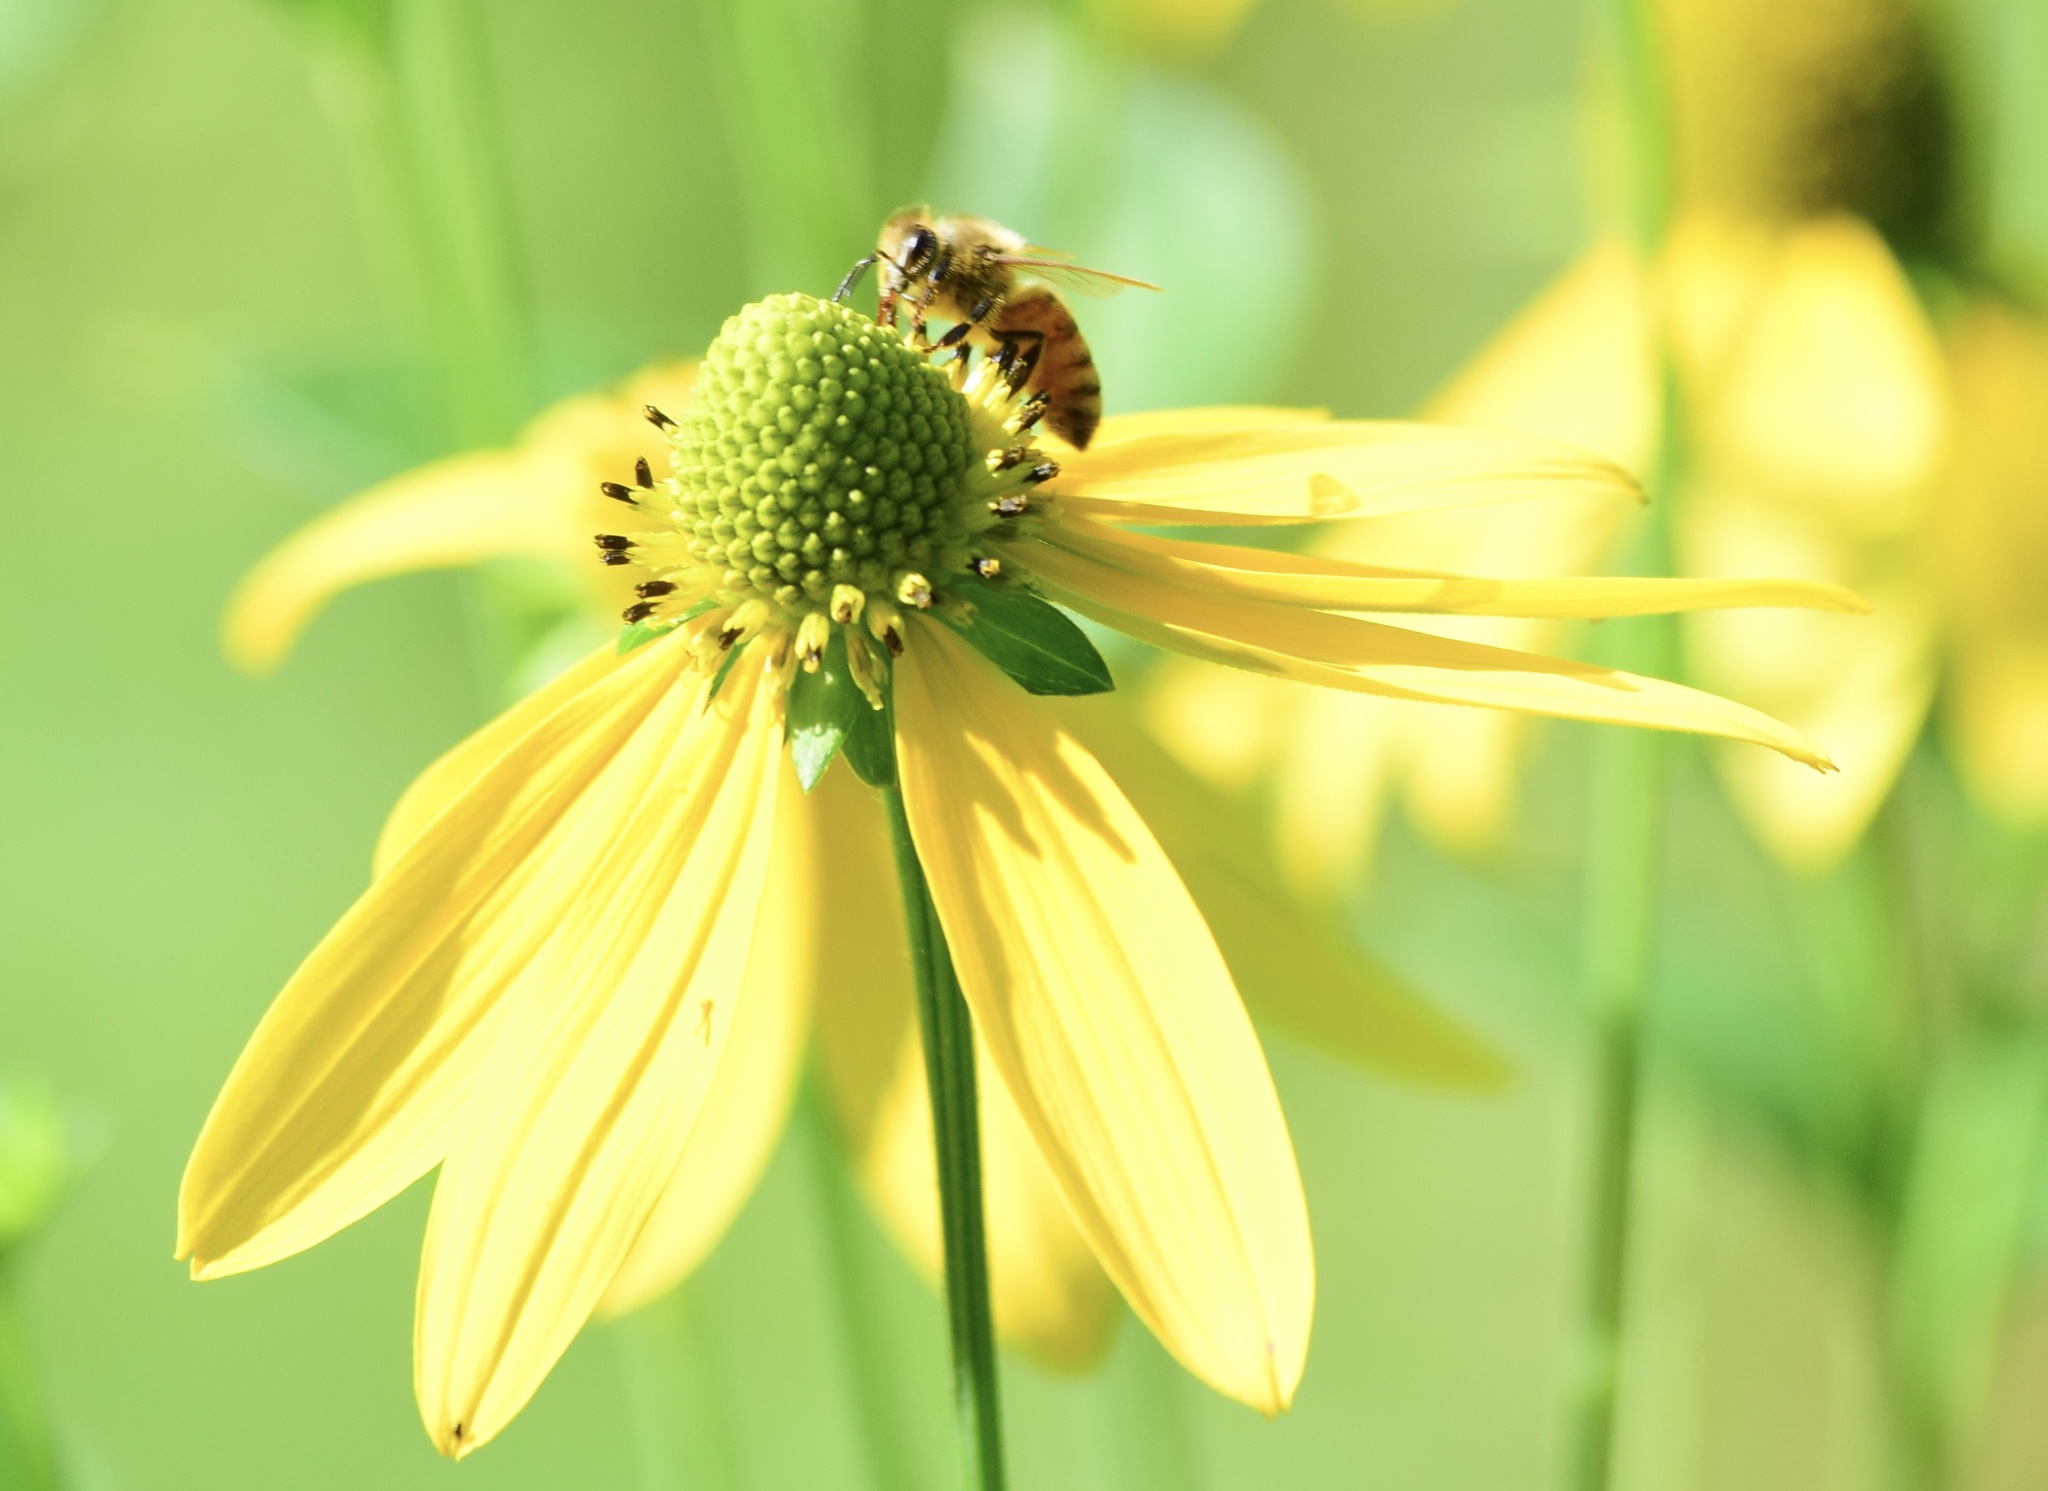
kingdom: Animalia
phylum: Arthropoda
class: Insecta
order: Hymenoptera
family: Apidae
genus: Apis
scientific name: Apis mellifera
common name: Honey bee
